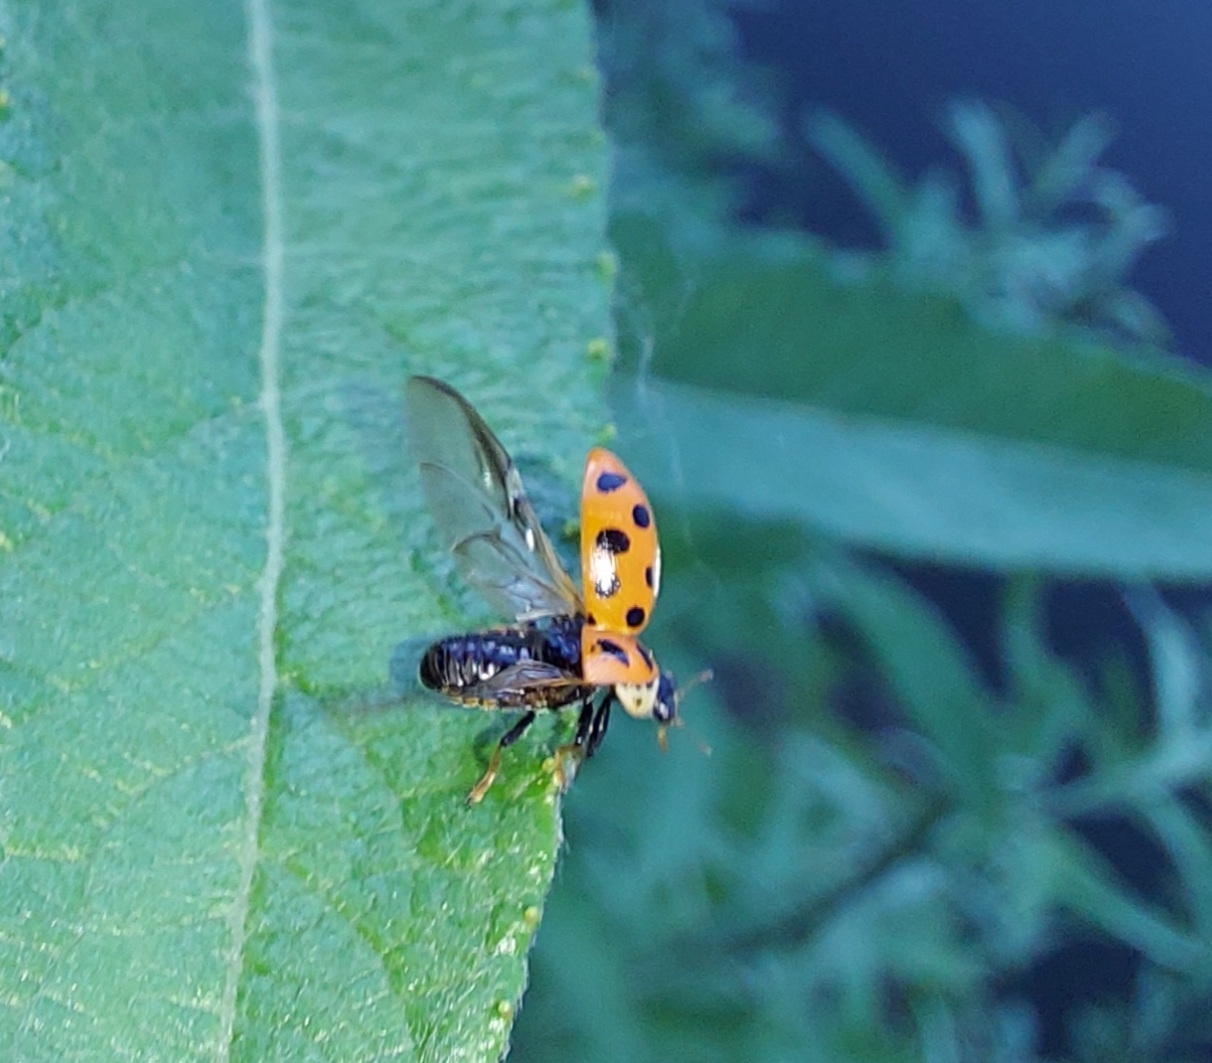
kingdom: Animalia
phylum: Arthropoda
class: Insecta
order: Coleoptera
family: Coccinellidae
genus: Hippodamia
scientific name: Hippodamia tredecimpunctata
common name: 13-spot ladybird
